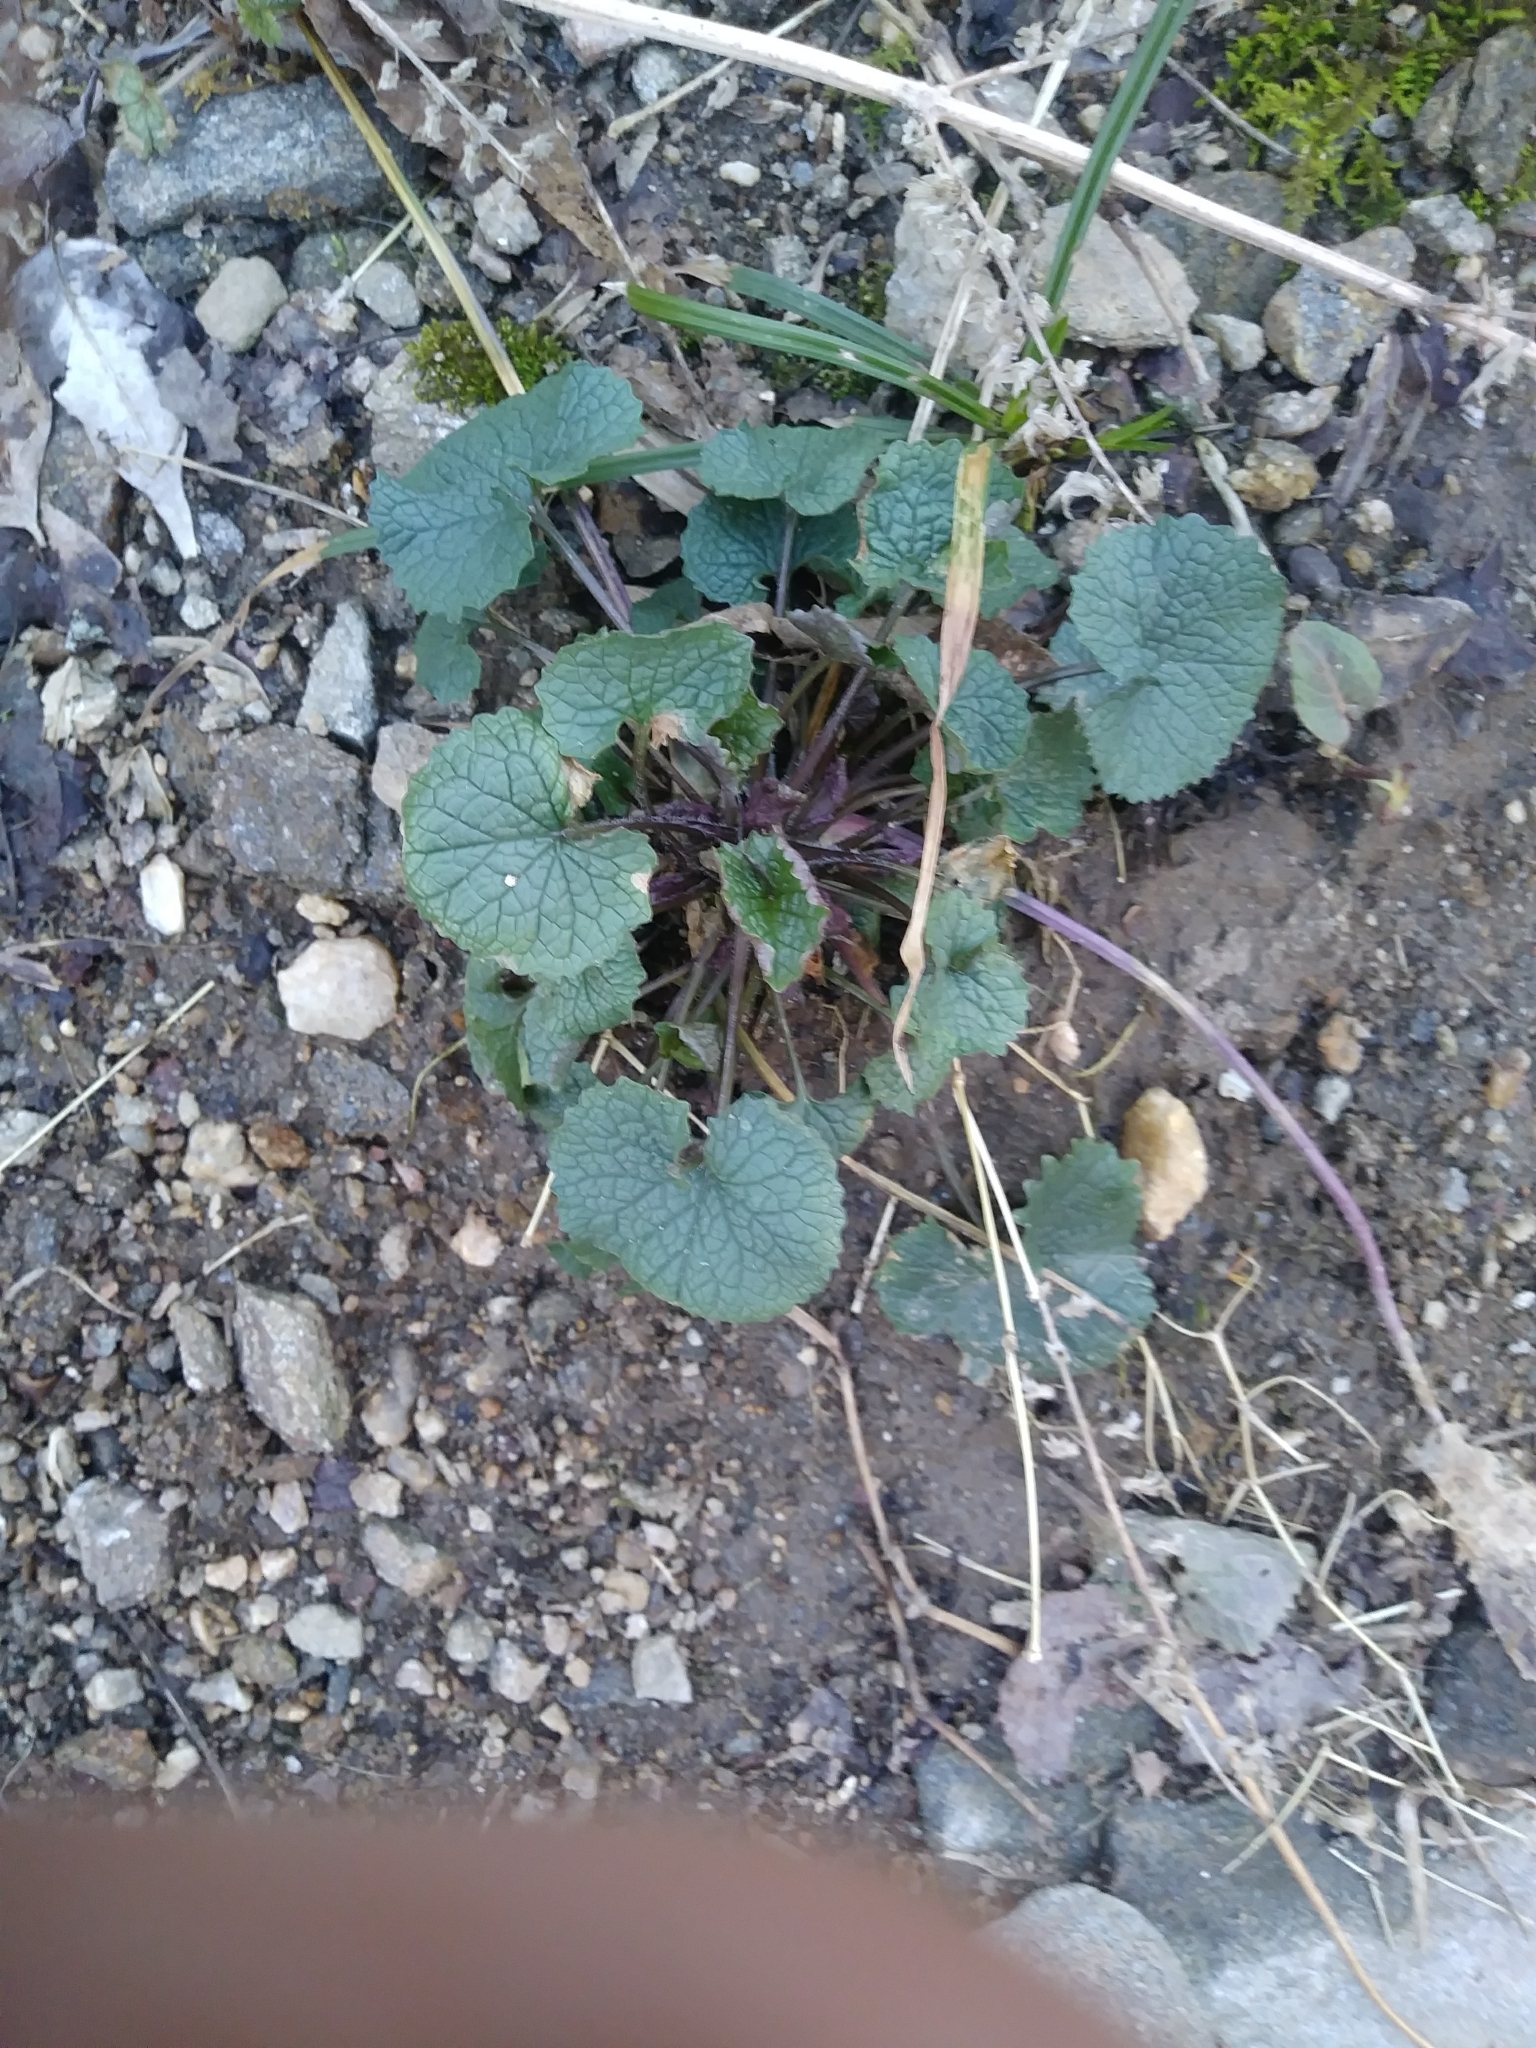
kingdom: Plantae
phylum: Tracheophyta
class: Magnoliopsida
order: Brassicales
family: Brassicaceae
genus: Alliaria
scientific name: Alliaria petiolata
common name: Garlic mustard
